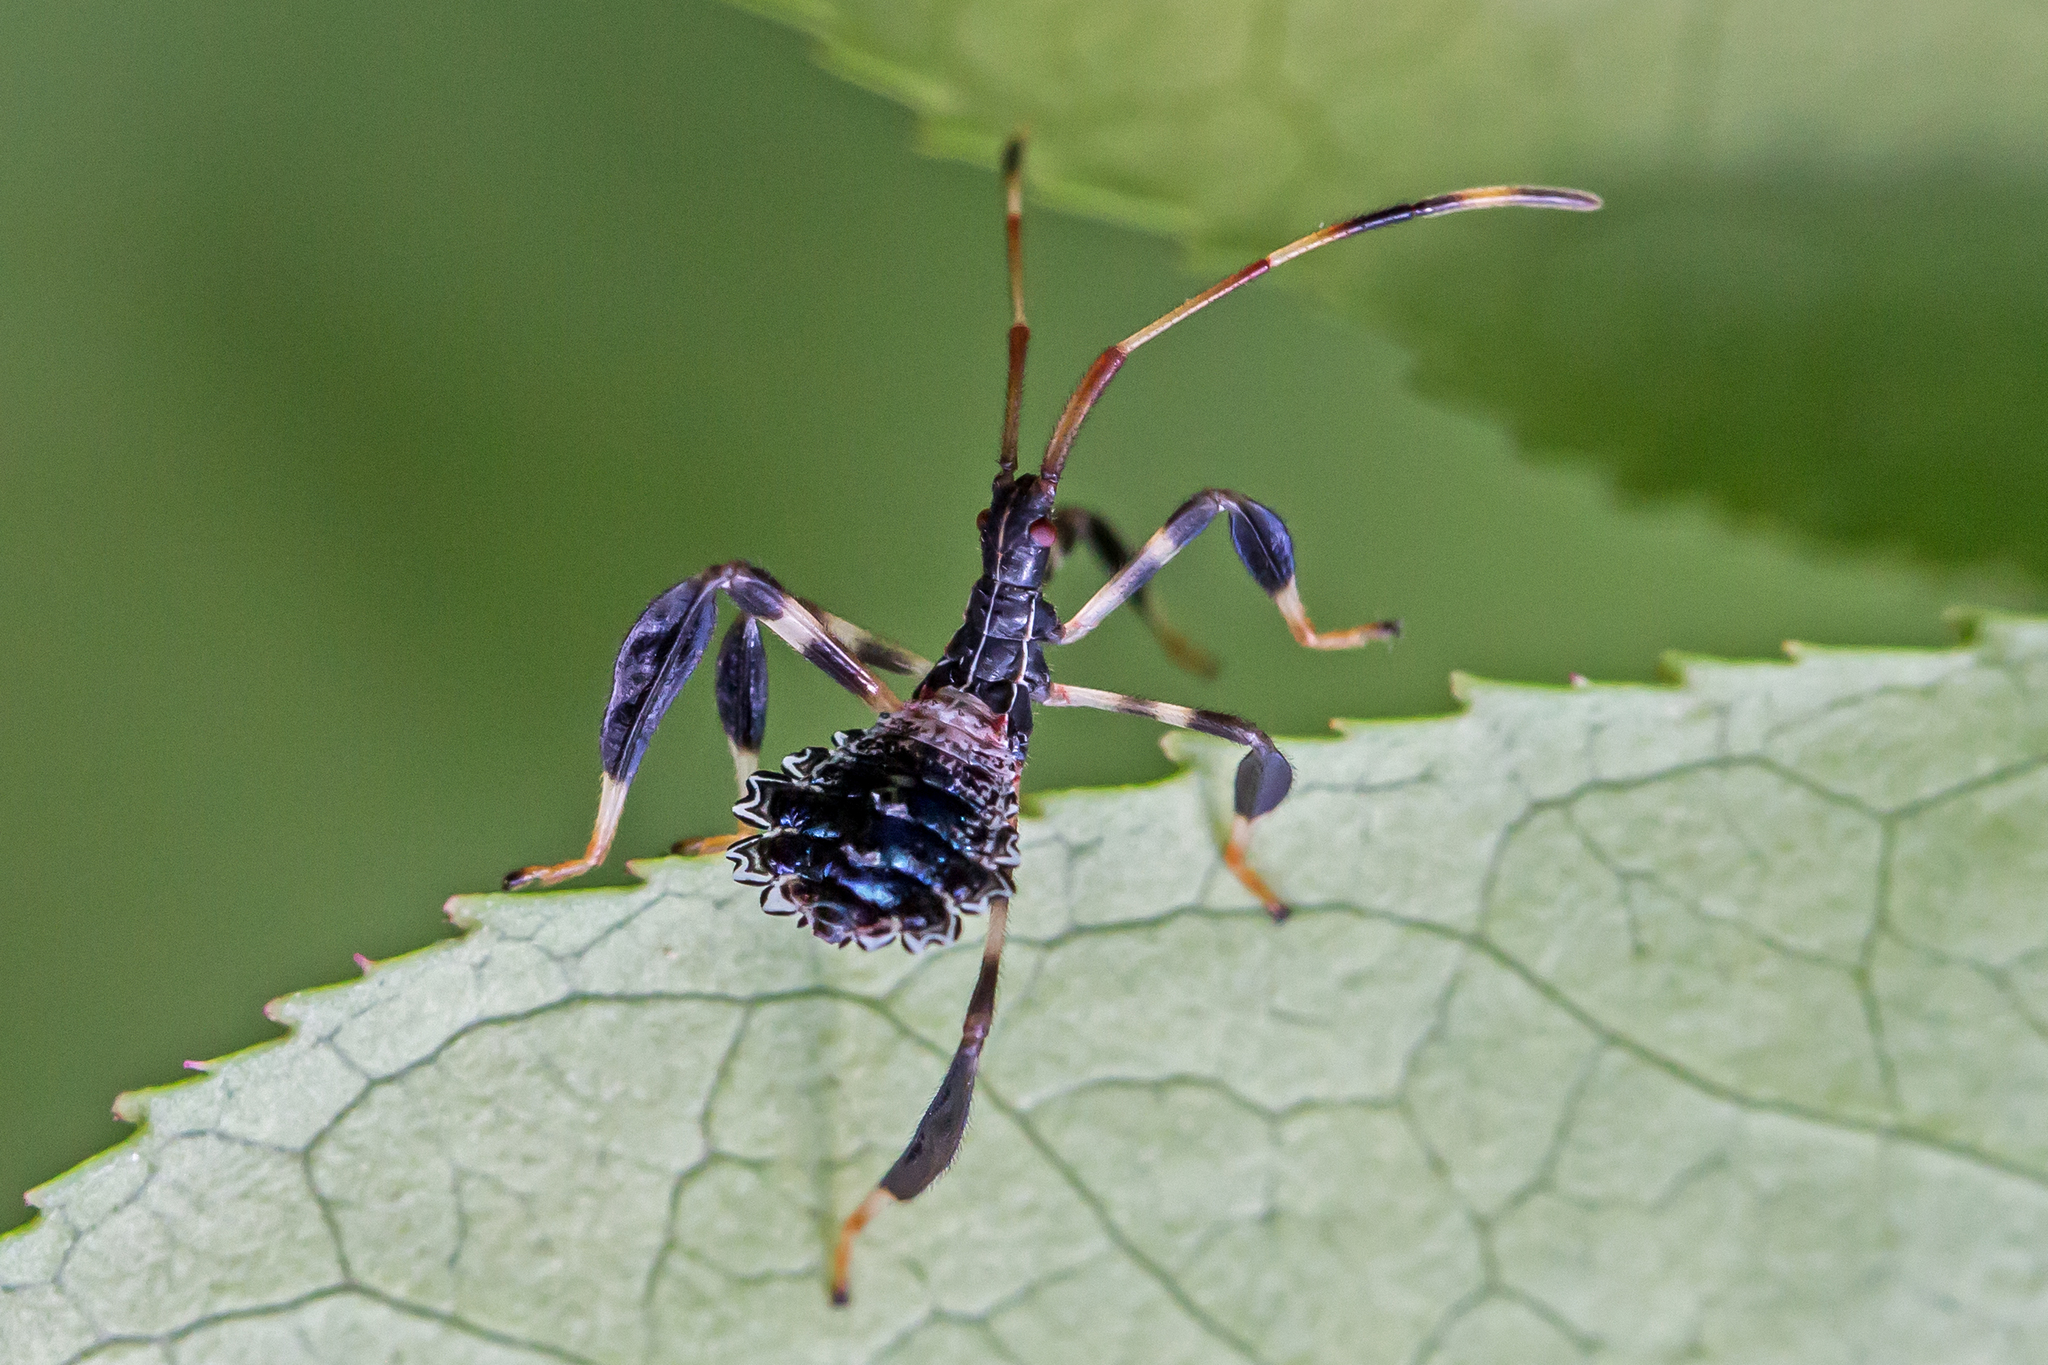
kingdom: Animalia
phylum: Arthropoda
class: Insecta
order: Hemiptera
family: Coreidae
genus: Acanthocephala
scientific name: Acanthocephala terminalis
